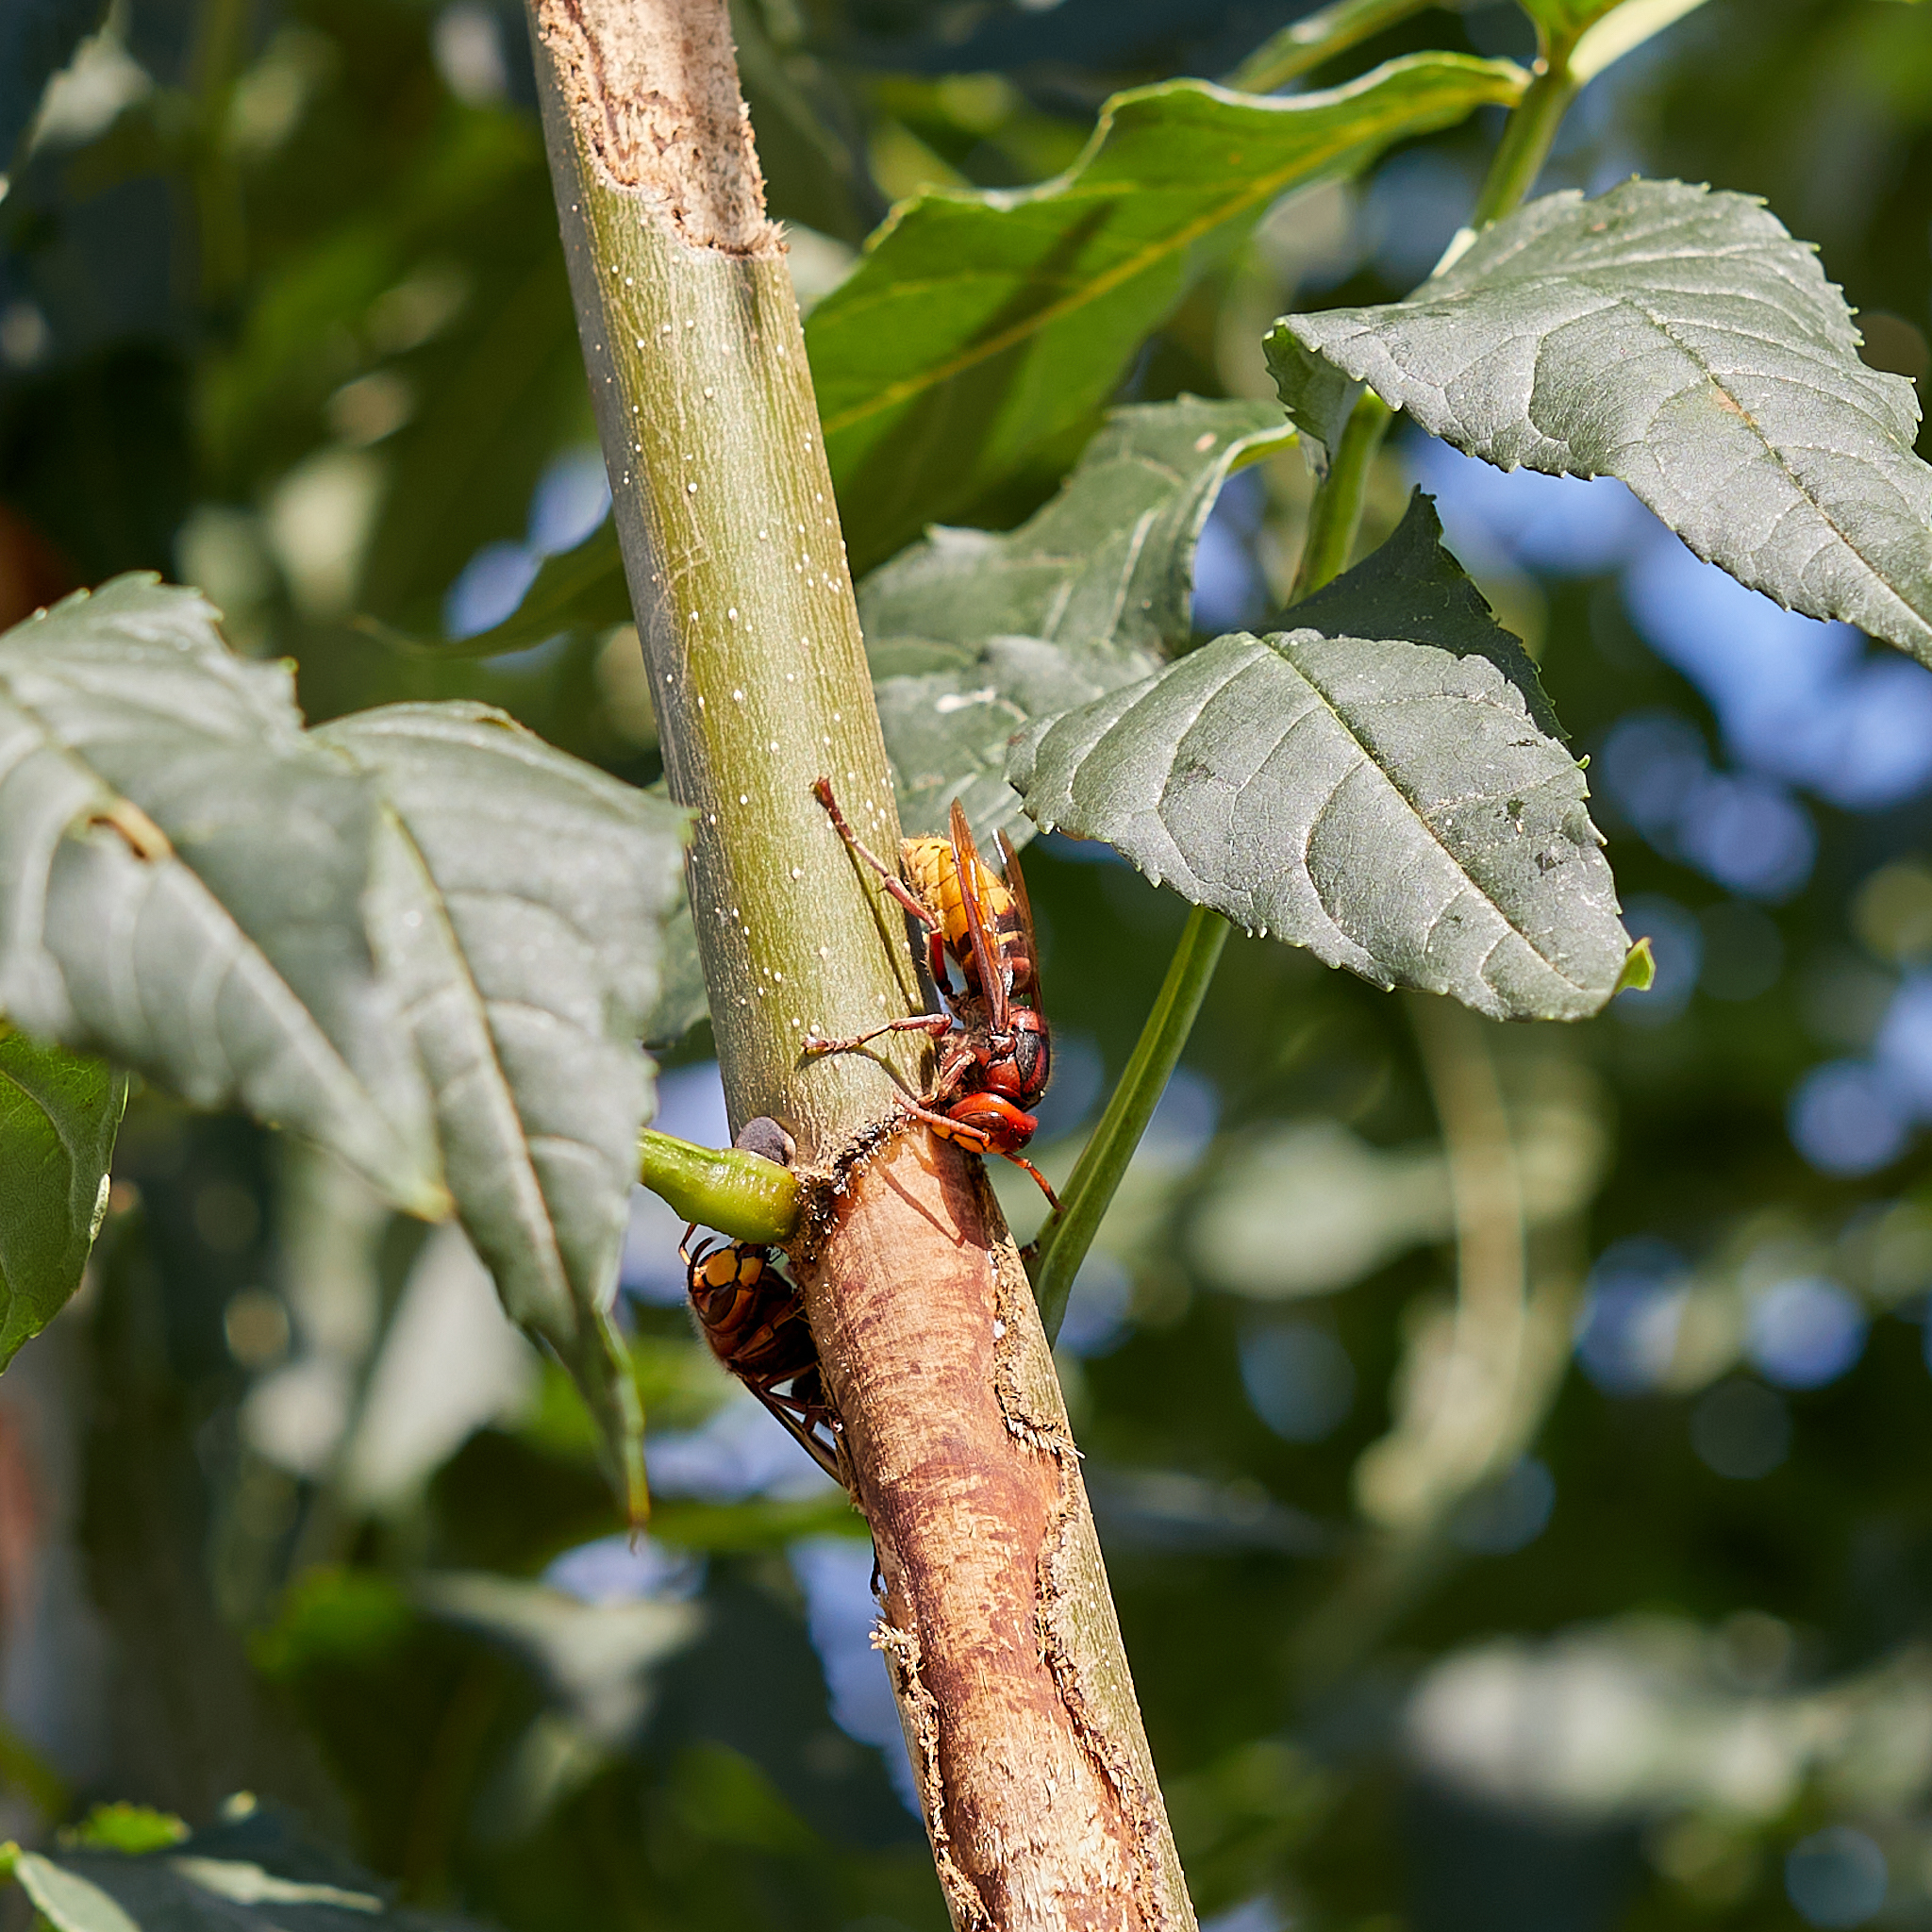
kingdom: Animalia
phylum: Arthropoda
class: Insecta
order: Hymenoptera
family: Vespidae
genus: Vespa
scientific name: Vespa crabro
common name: Hornet
